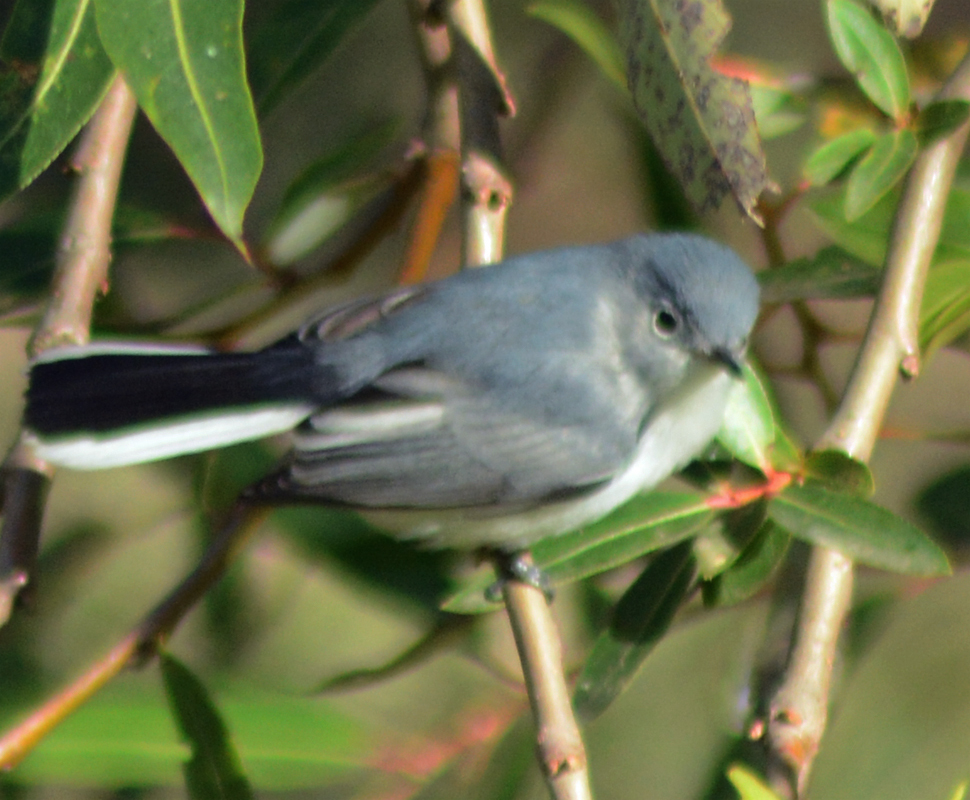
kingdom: Animalia
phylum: Chordata
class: Aves
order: Passeriformes
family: Polioptilidae
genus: Polioptila
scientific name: Polioptila caerulea
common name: Blue-gray gnatcatcher
